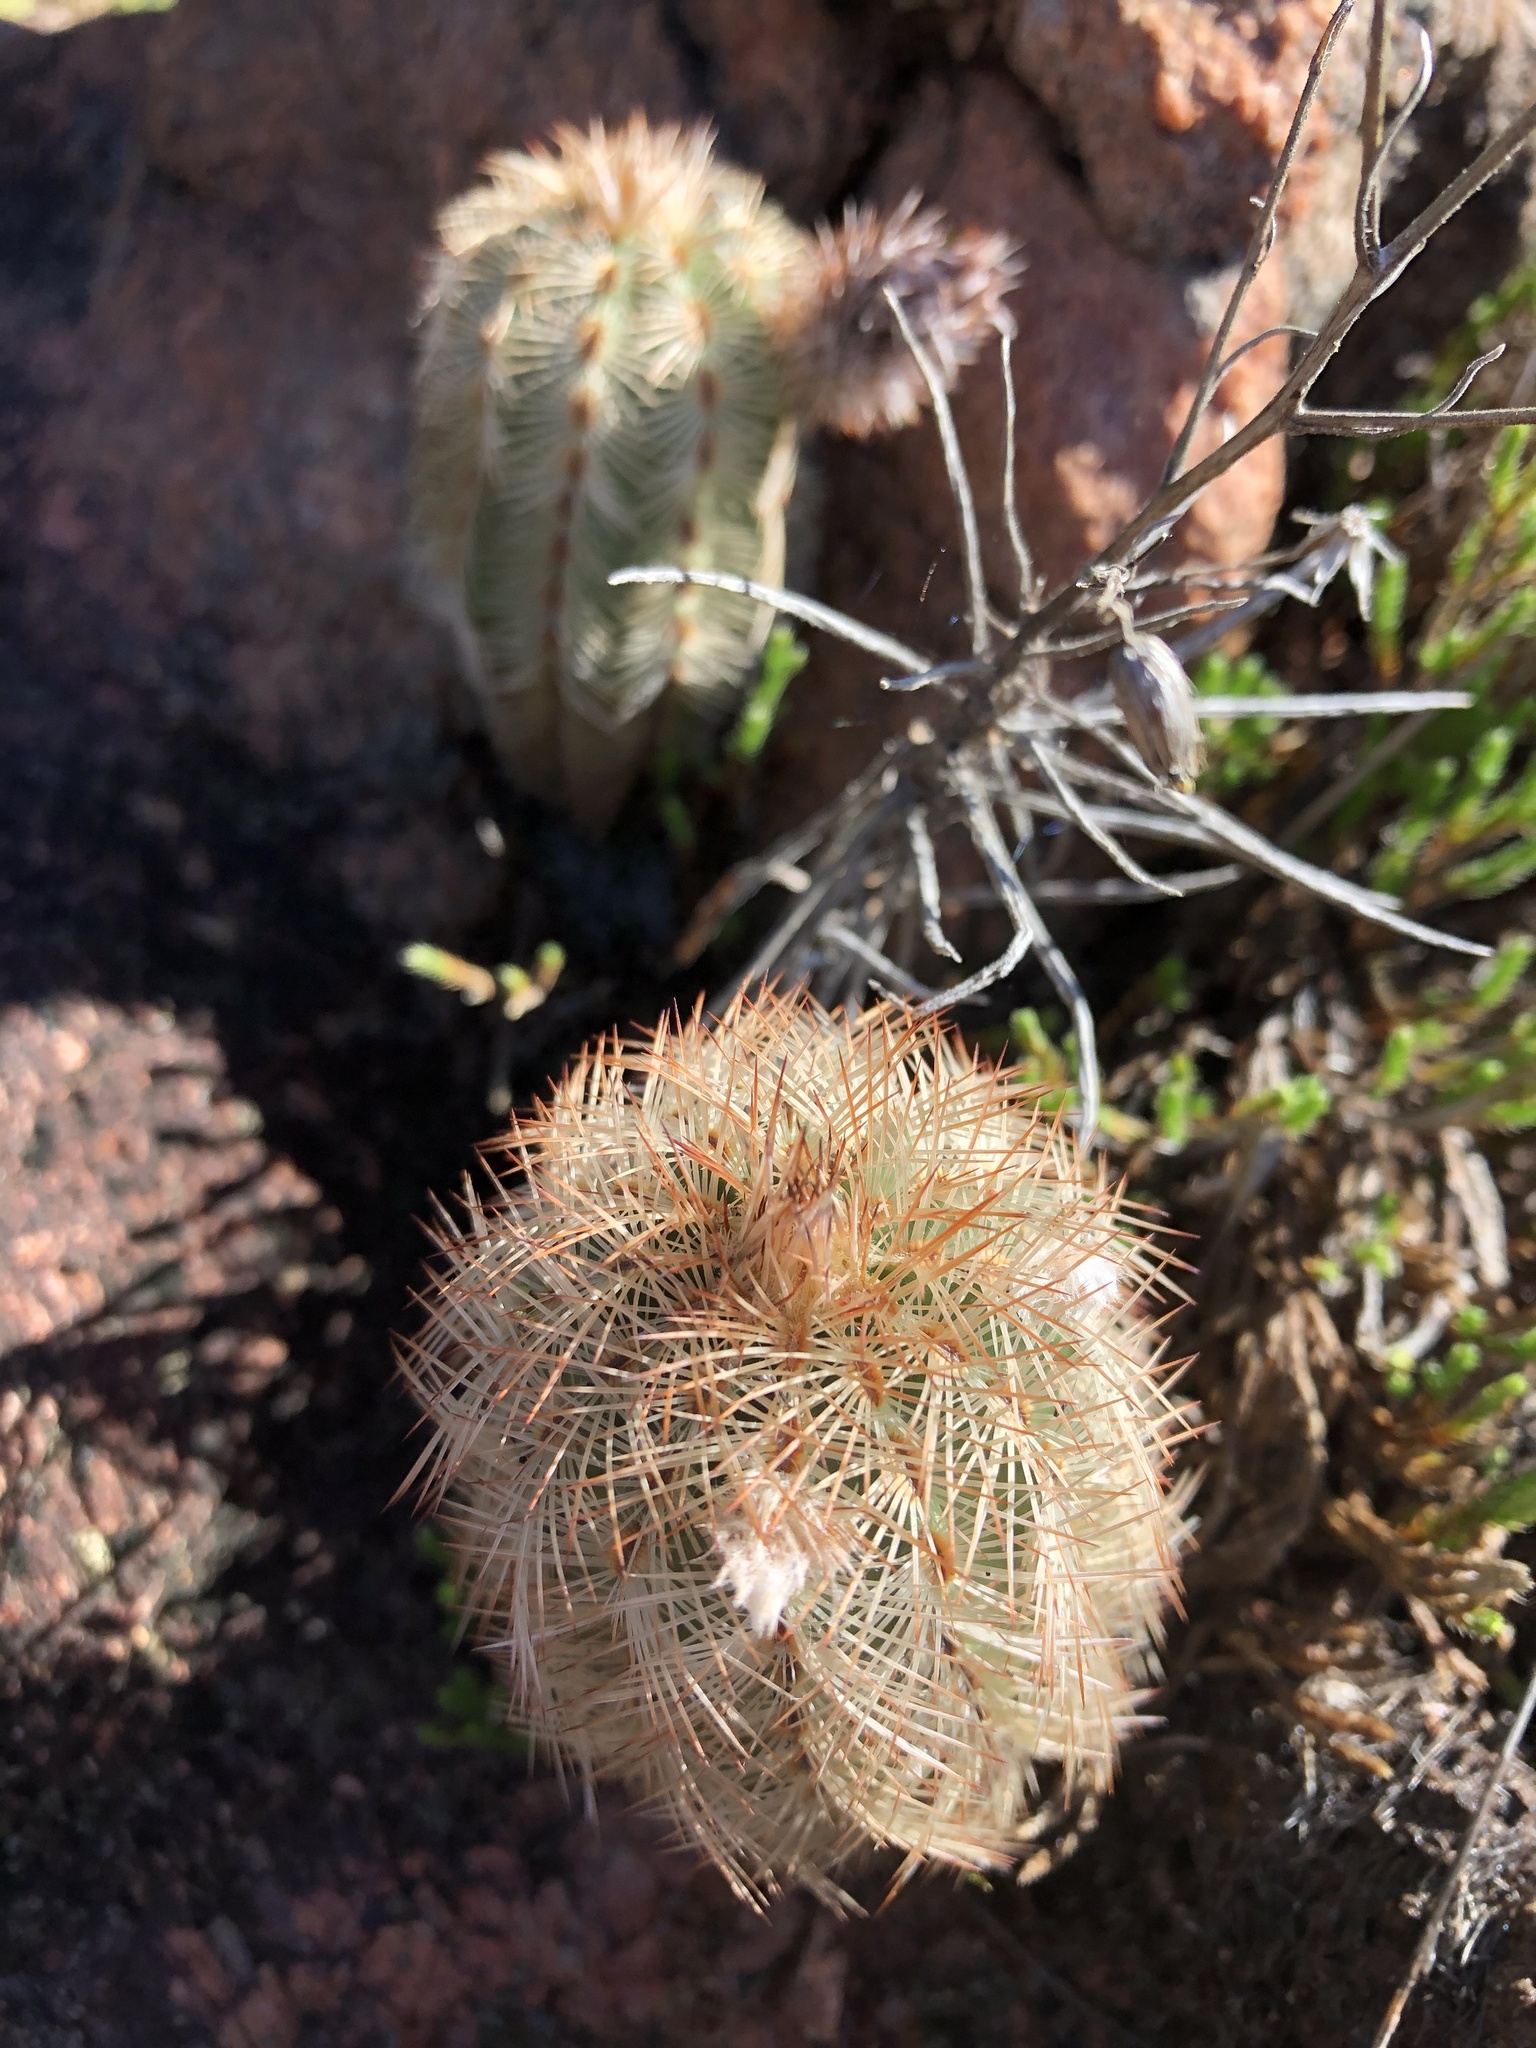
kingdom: Plantae
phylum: Tracheophyta
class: Magnoliopsida
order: Caryophyllales
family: Cactaceae
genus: Echinocereus
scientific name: Echinocereus reichenbachii
